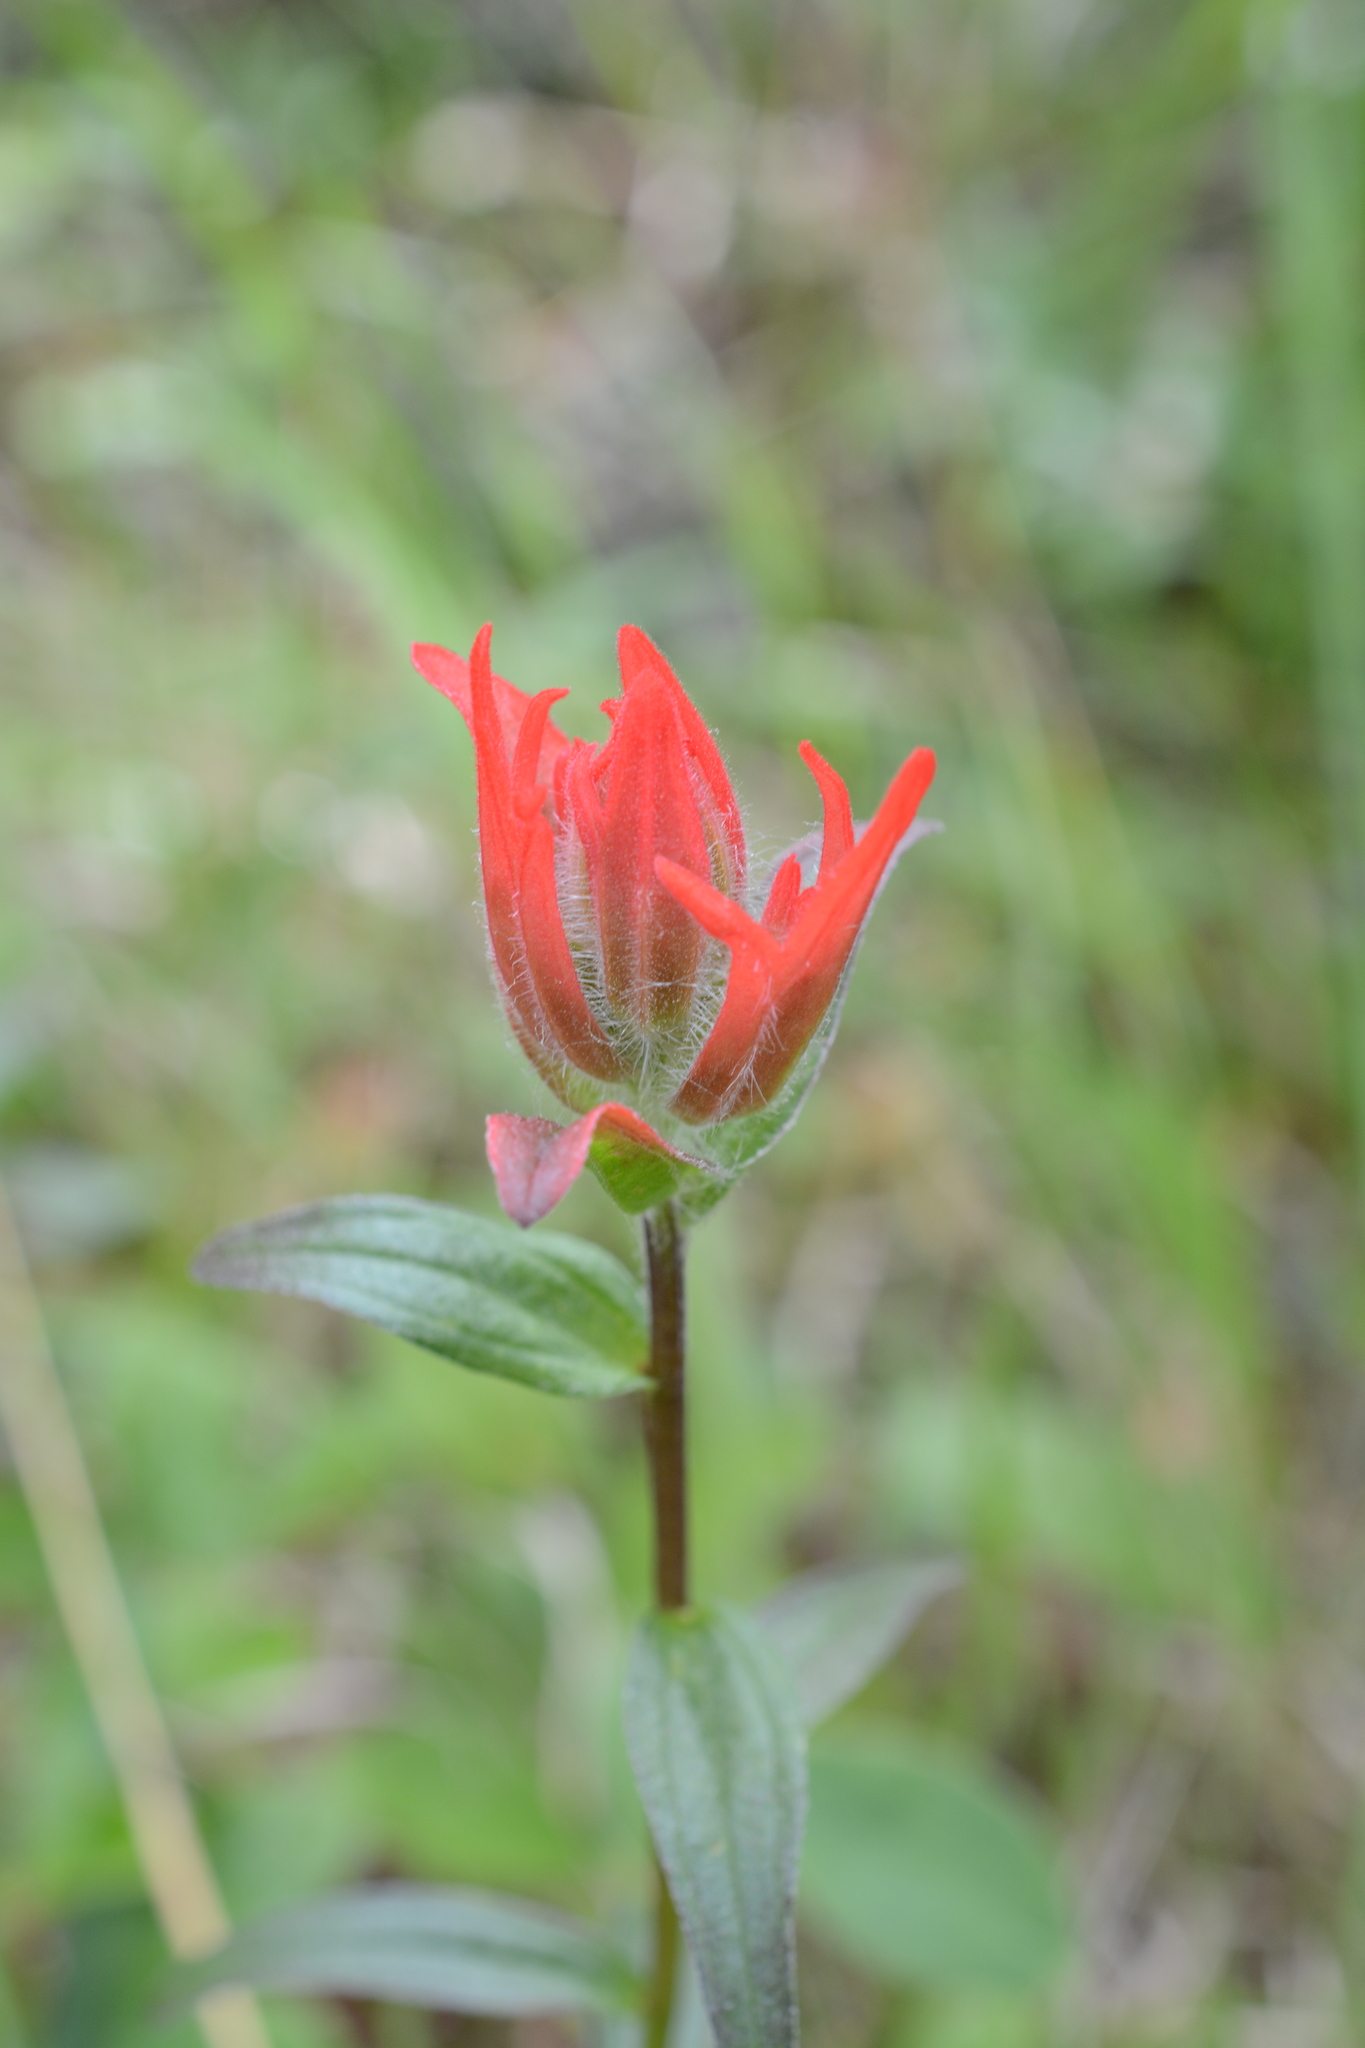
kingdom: Plantae
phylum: Tracheophyta
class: Magnoliopsida
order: Lamiales
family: Orobanchaceae
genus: Castilleja
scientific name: Castilleja miniata
